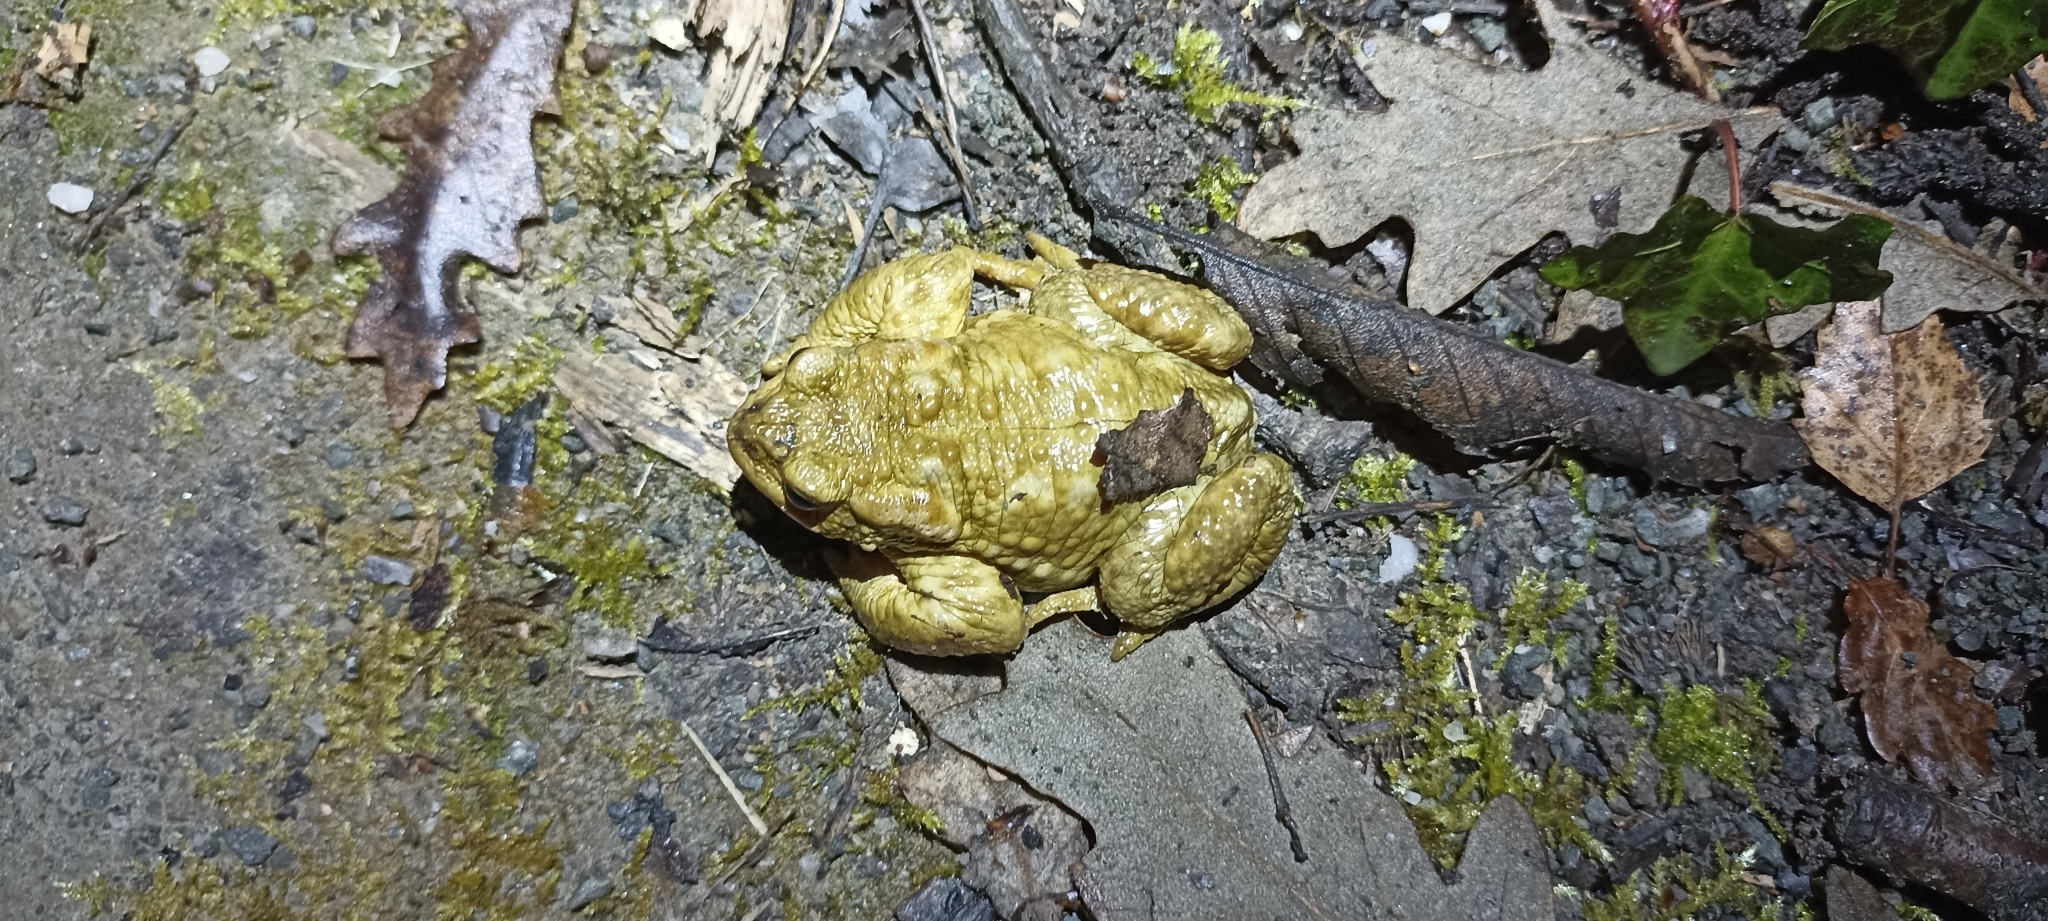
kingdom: Animalia
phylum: Chordata
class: Amphibia
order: Anura
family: Bufonidae
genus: Bufo
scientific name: Bufo spinosus
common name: Western common toad
